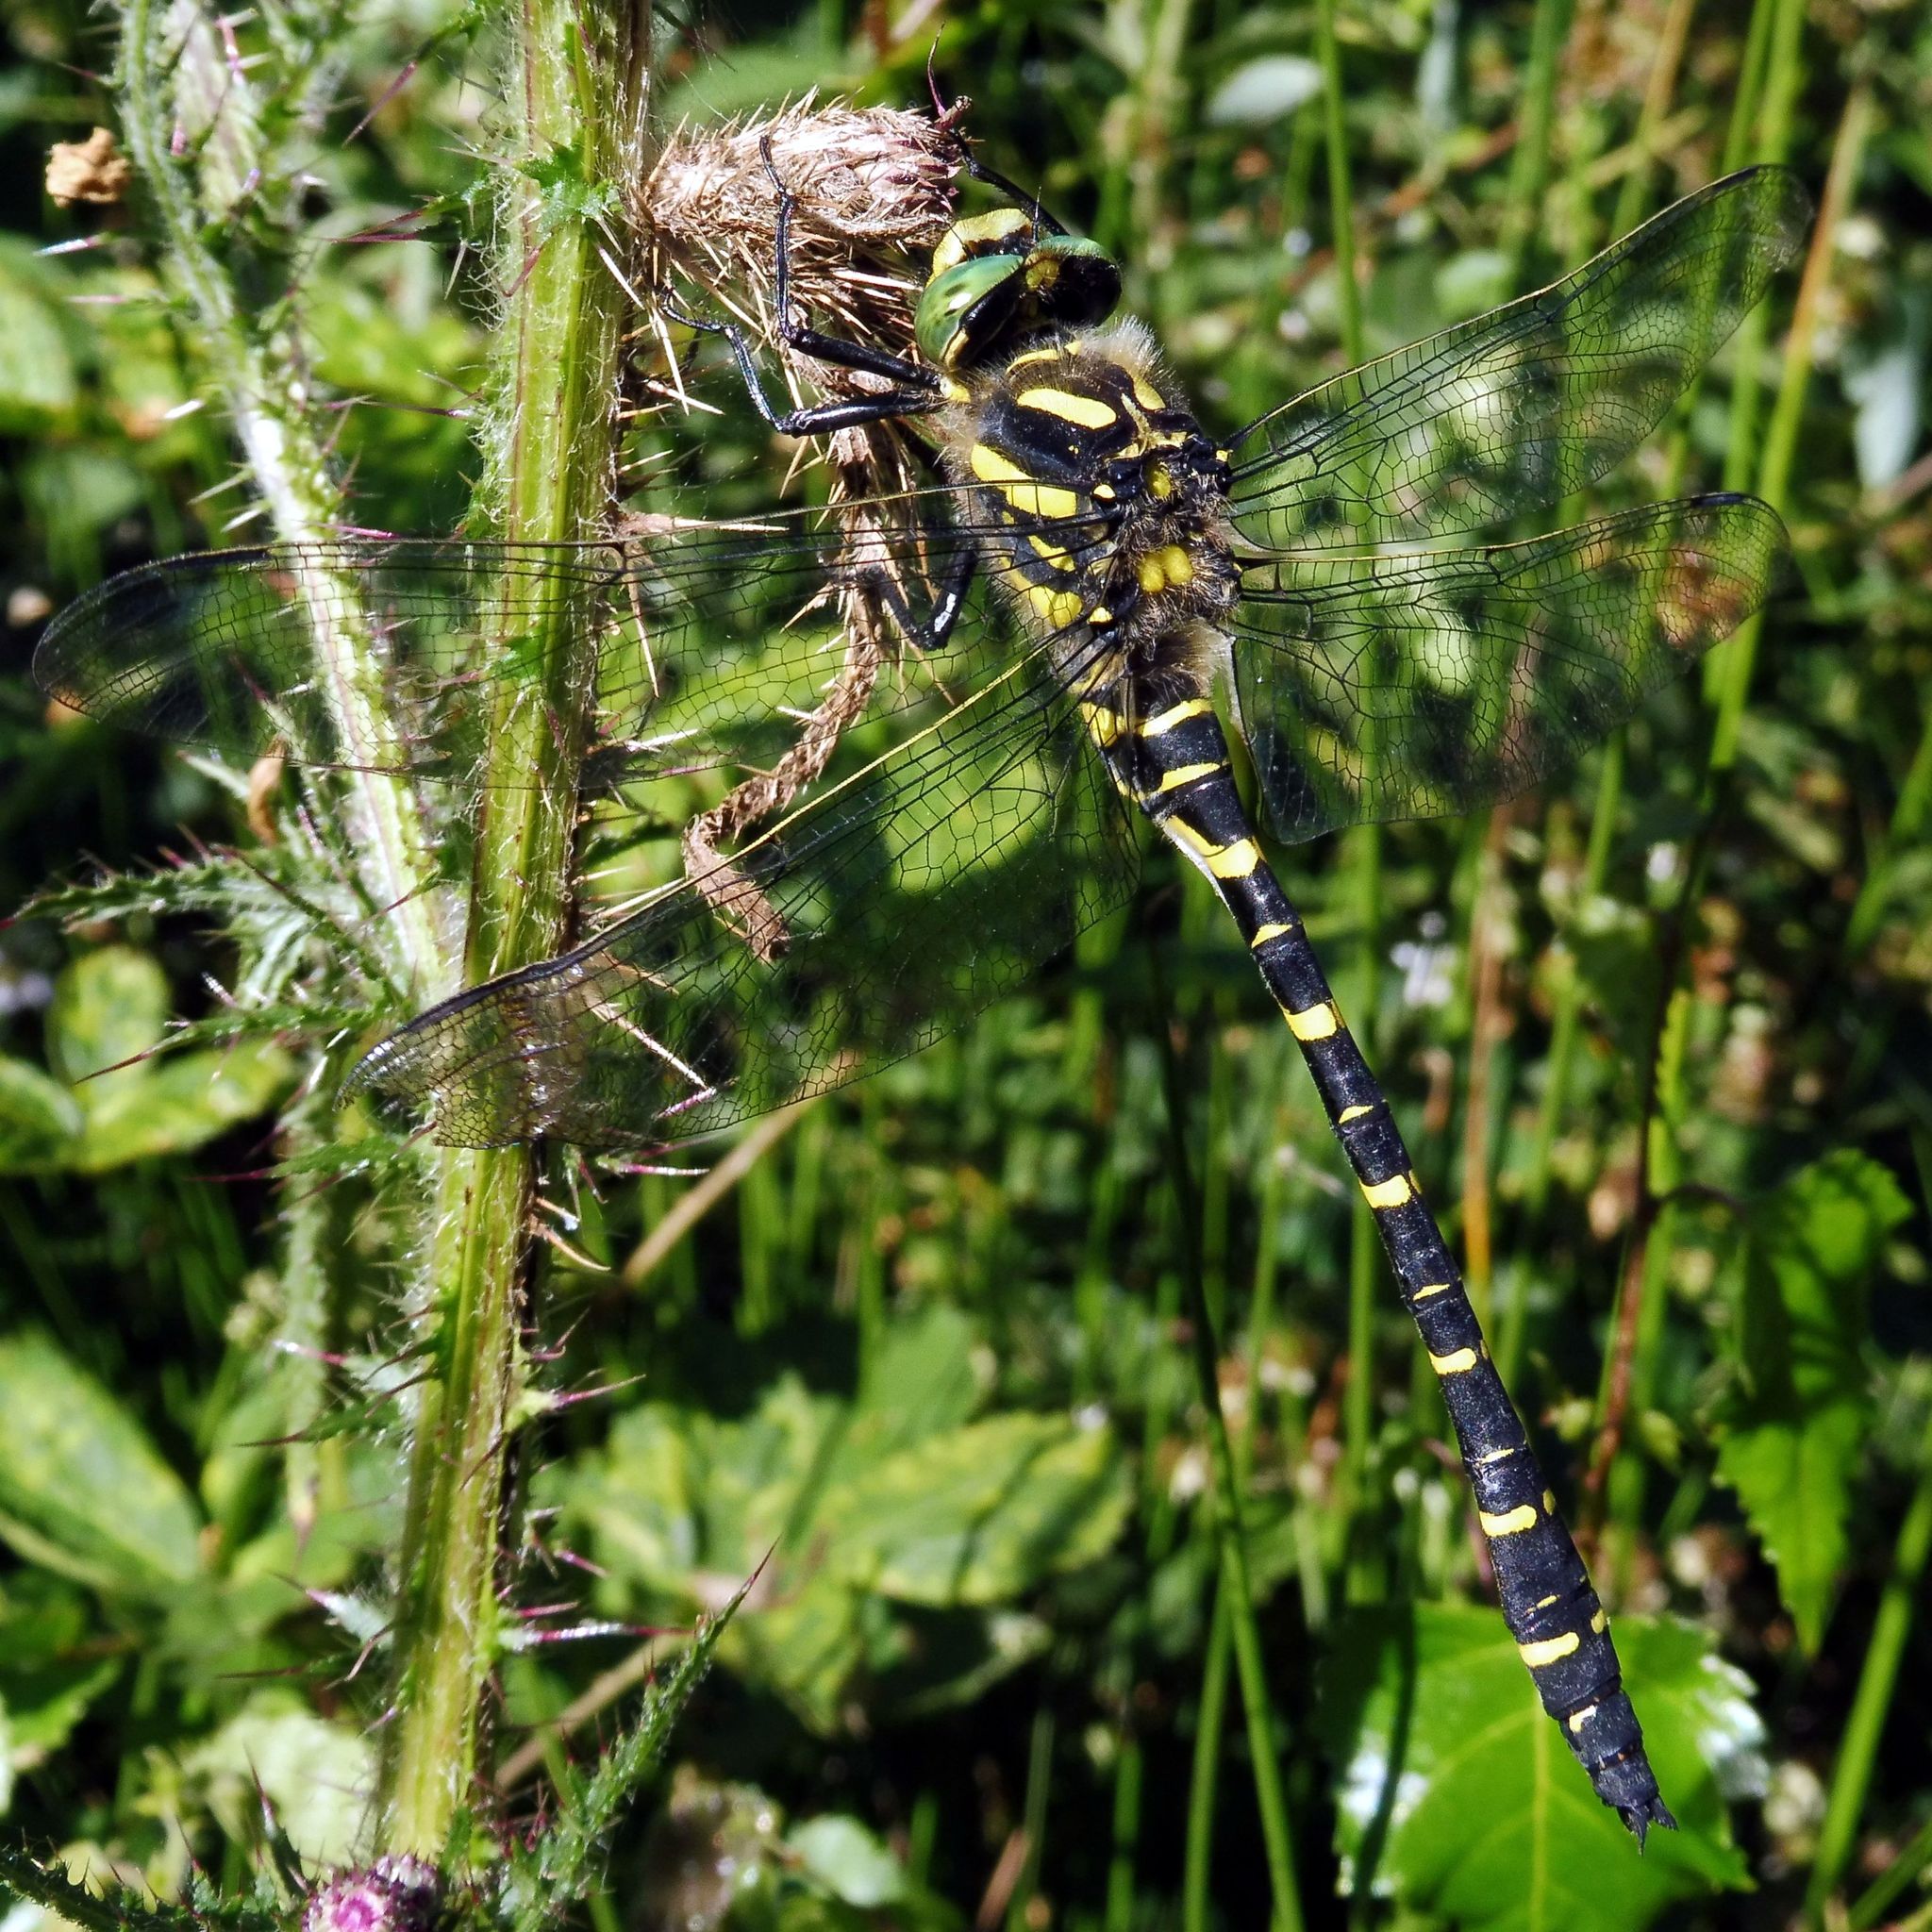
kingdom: Animalia
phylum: Arthropoda
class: Insecta
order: Odonata
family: Cordulegastridae
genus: Cordulegaster
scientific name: Cordulegaster boltonii
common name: Golden-ringed dragonfly
